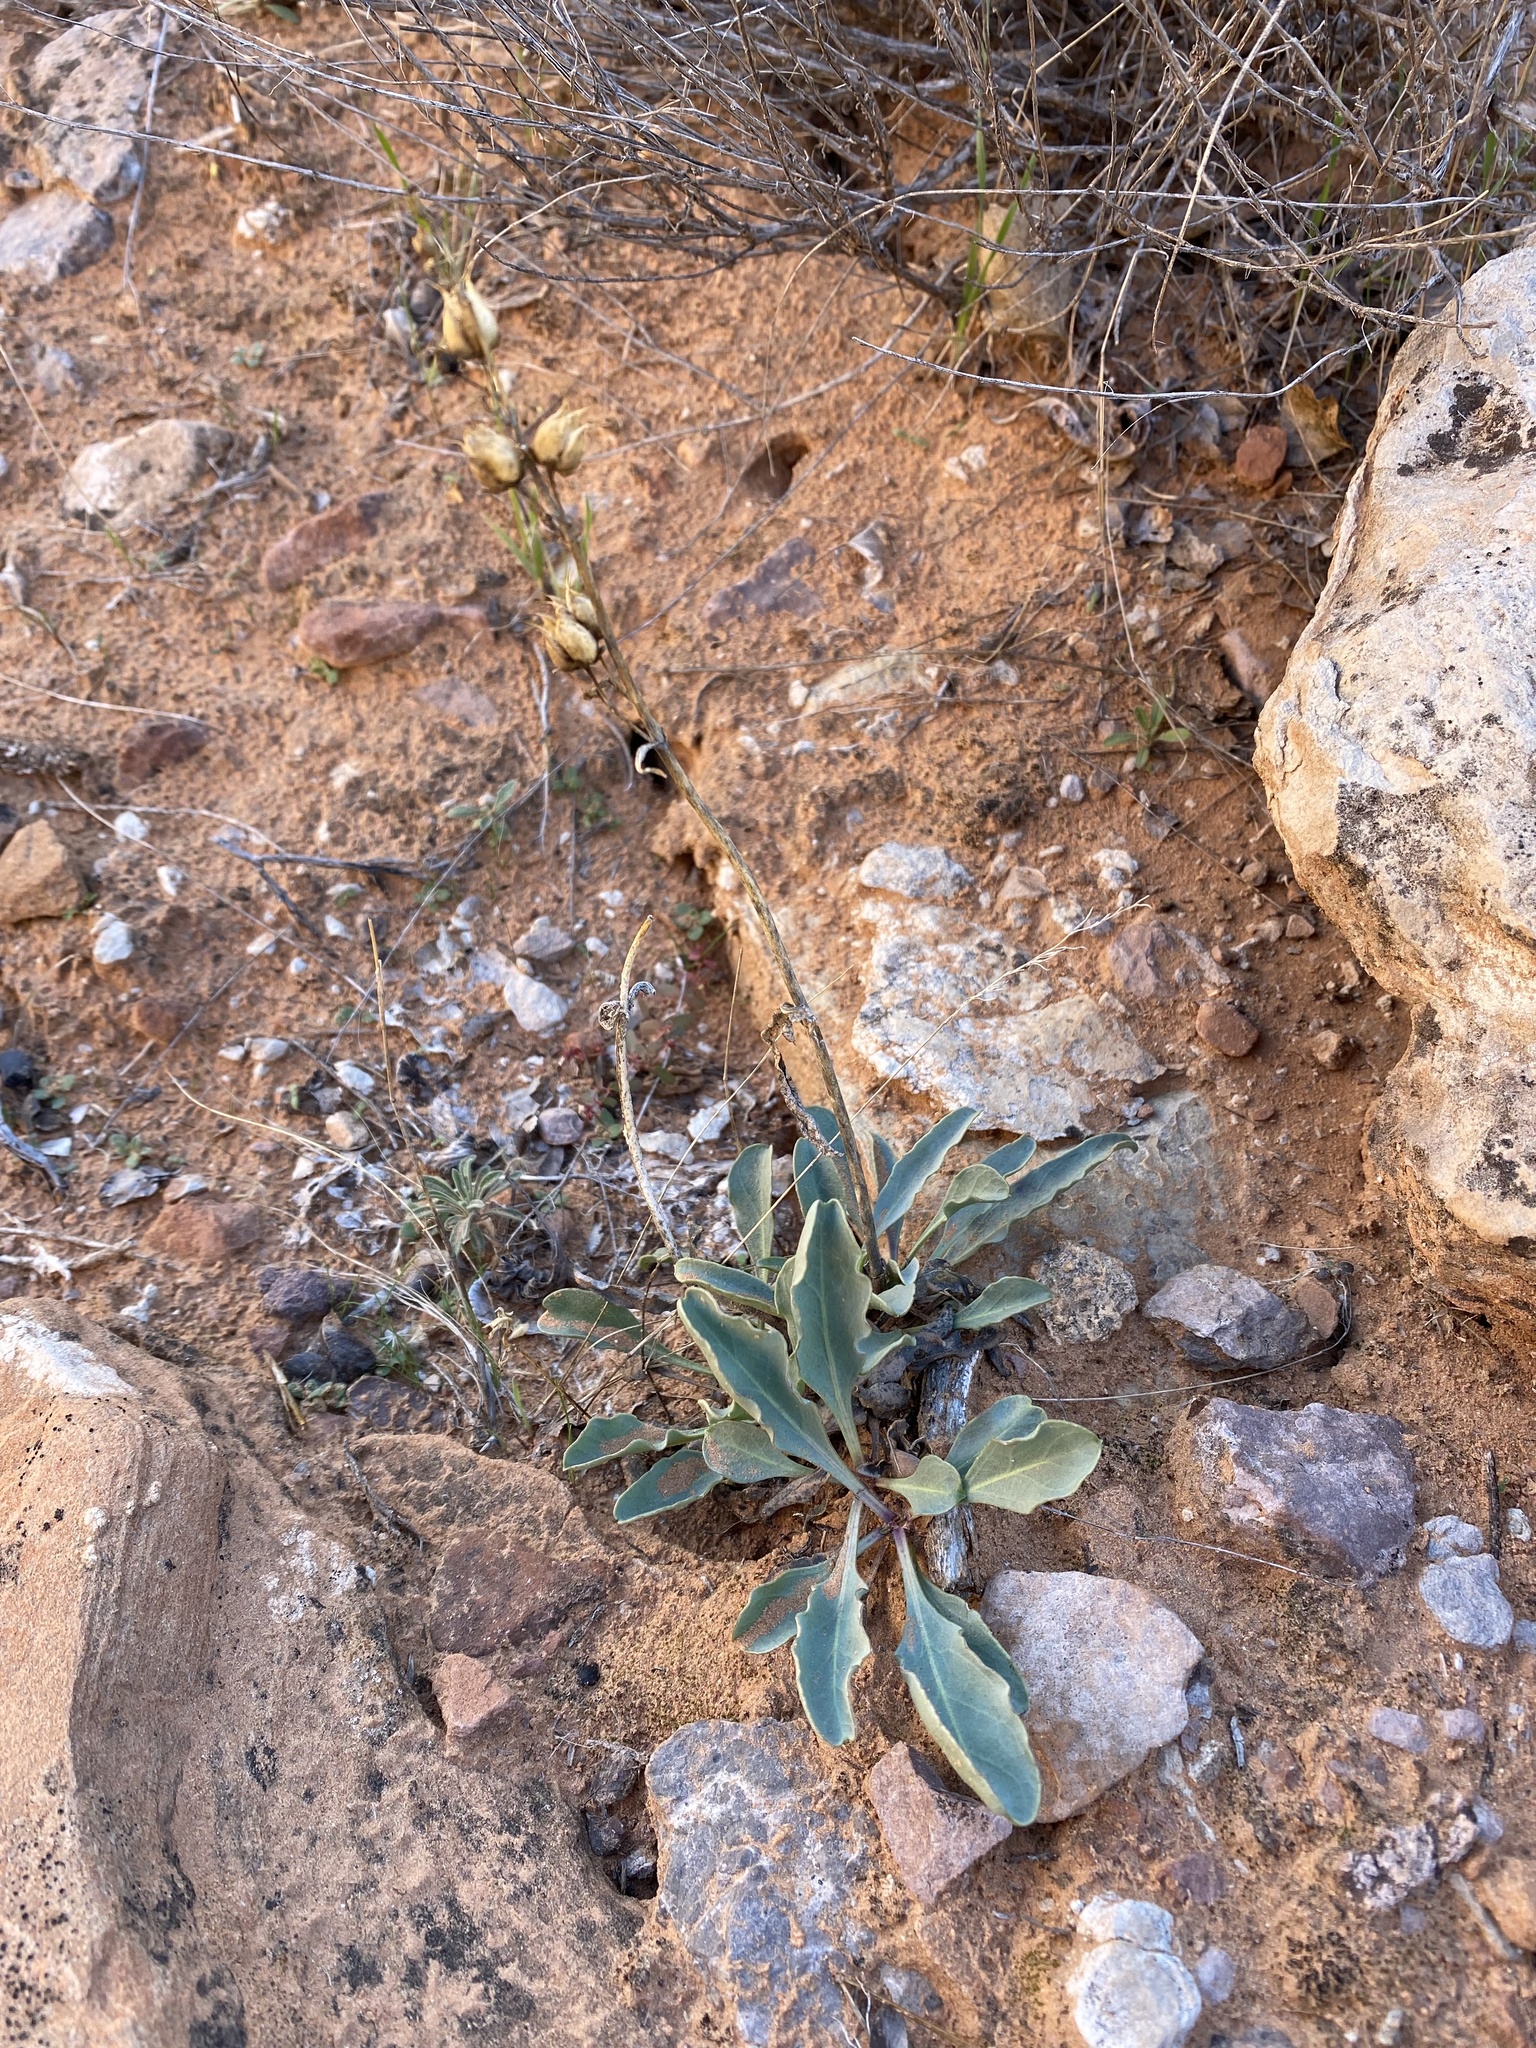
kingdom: Plantae
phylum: Tracheophyta
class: Magnoliopsida
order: Lamiales
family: Plantaginaceae
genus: Penstemon
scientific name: Penstemon utahensis
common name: Utah penstemon
